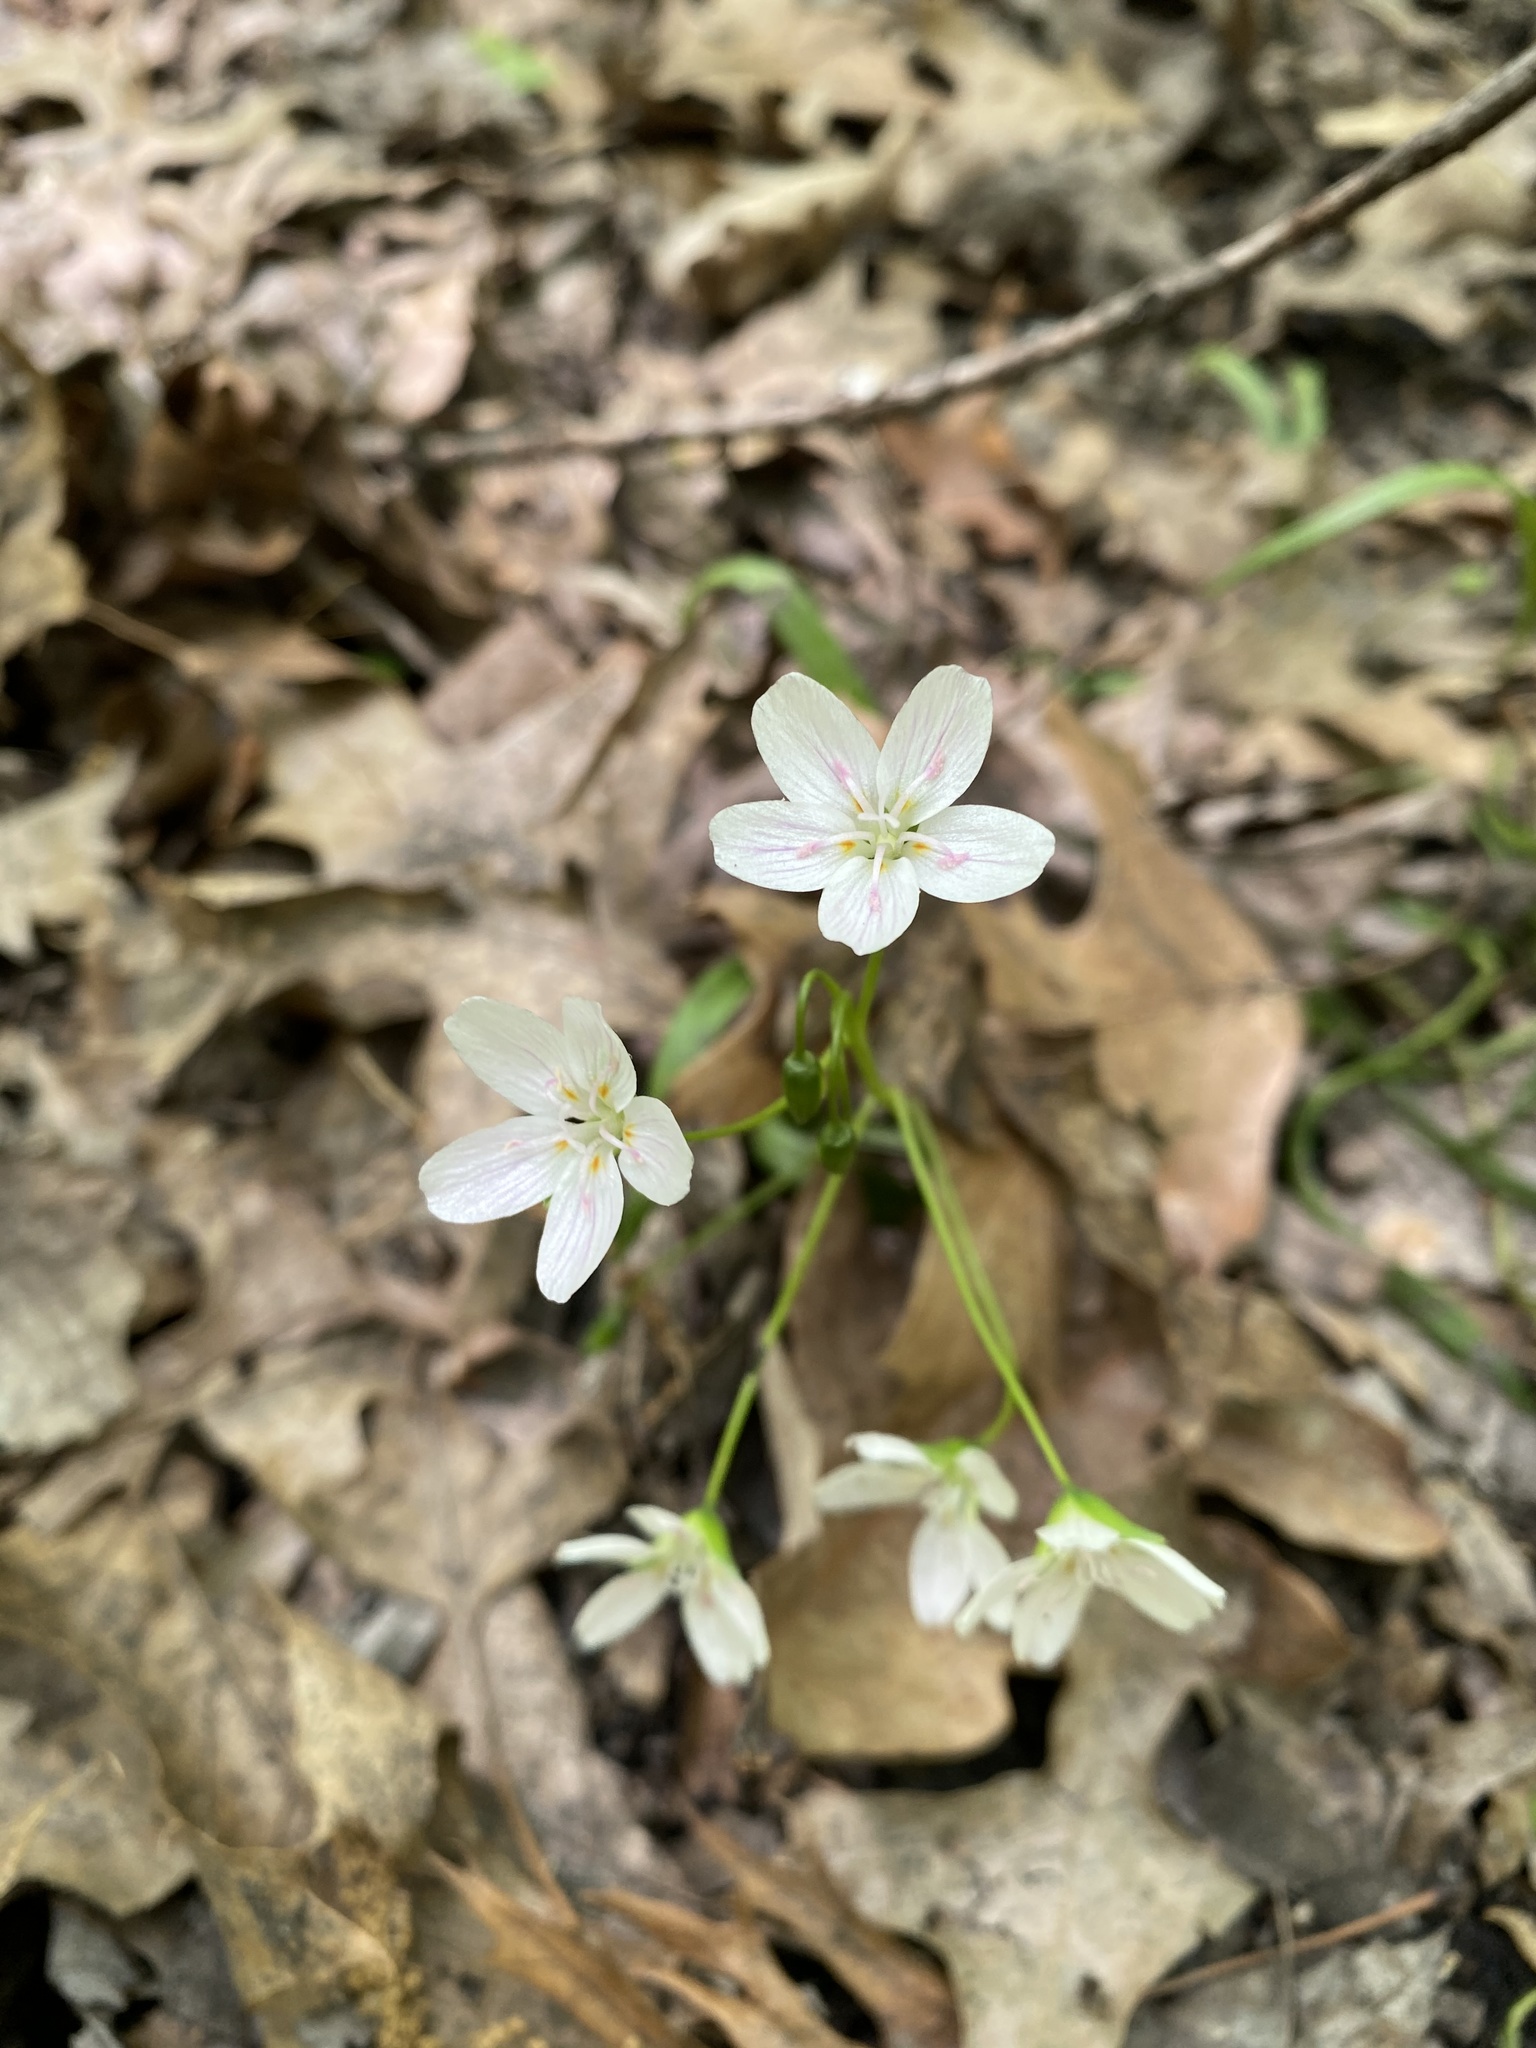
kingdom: Plantae
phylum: Tracheophyta
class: Magnoliopsida
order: Caryophyllales
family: Montiaceae
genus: Claytonia
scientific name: Claytonia virginica
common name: Virginia springbeauty
